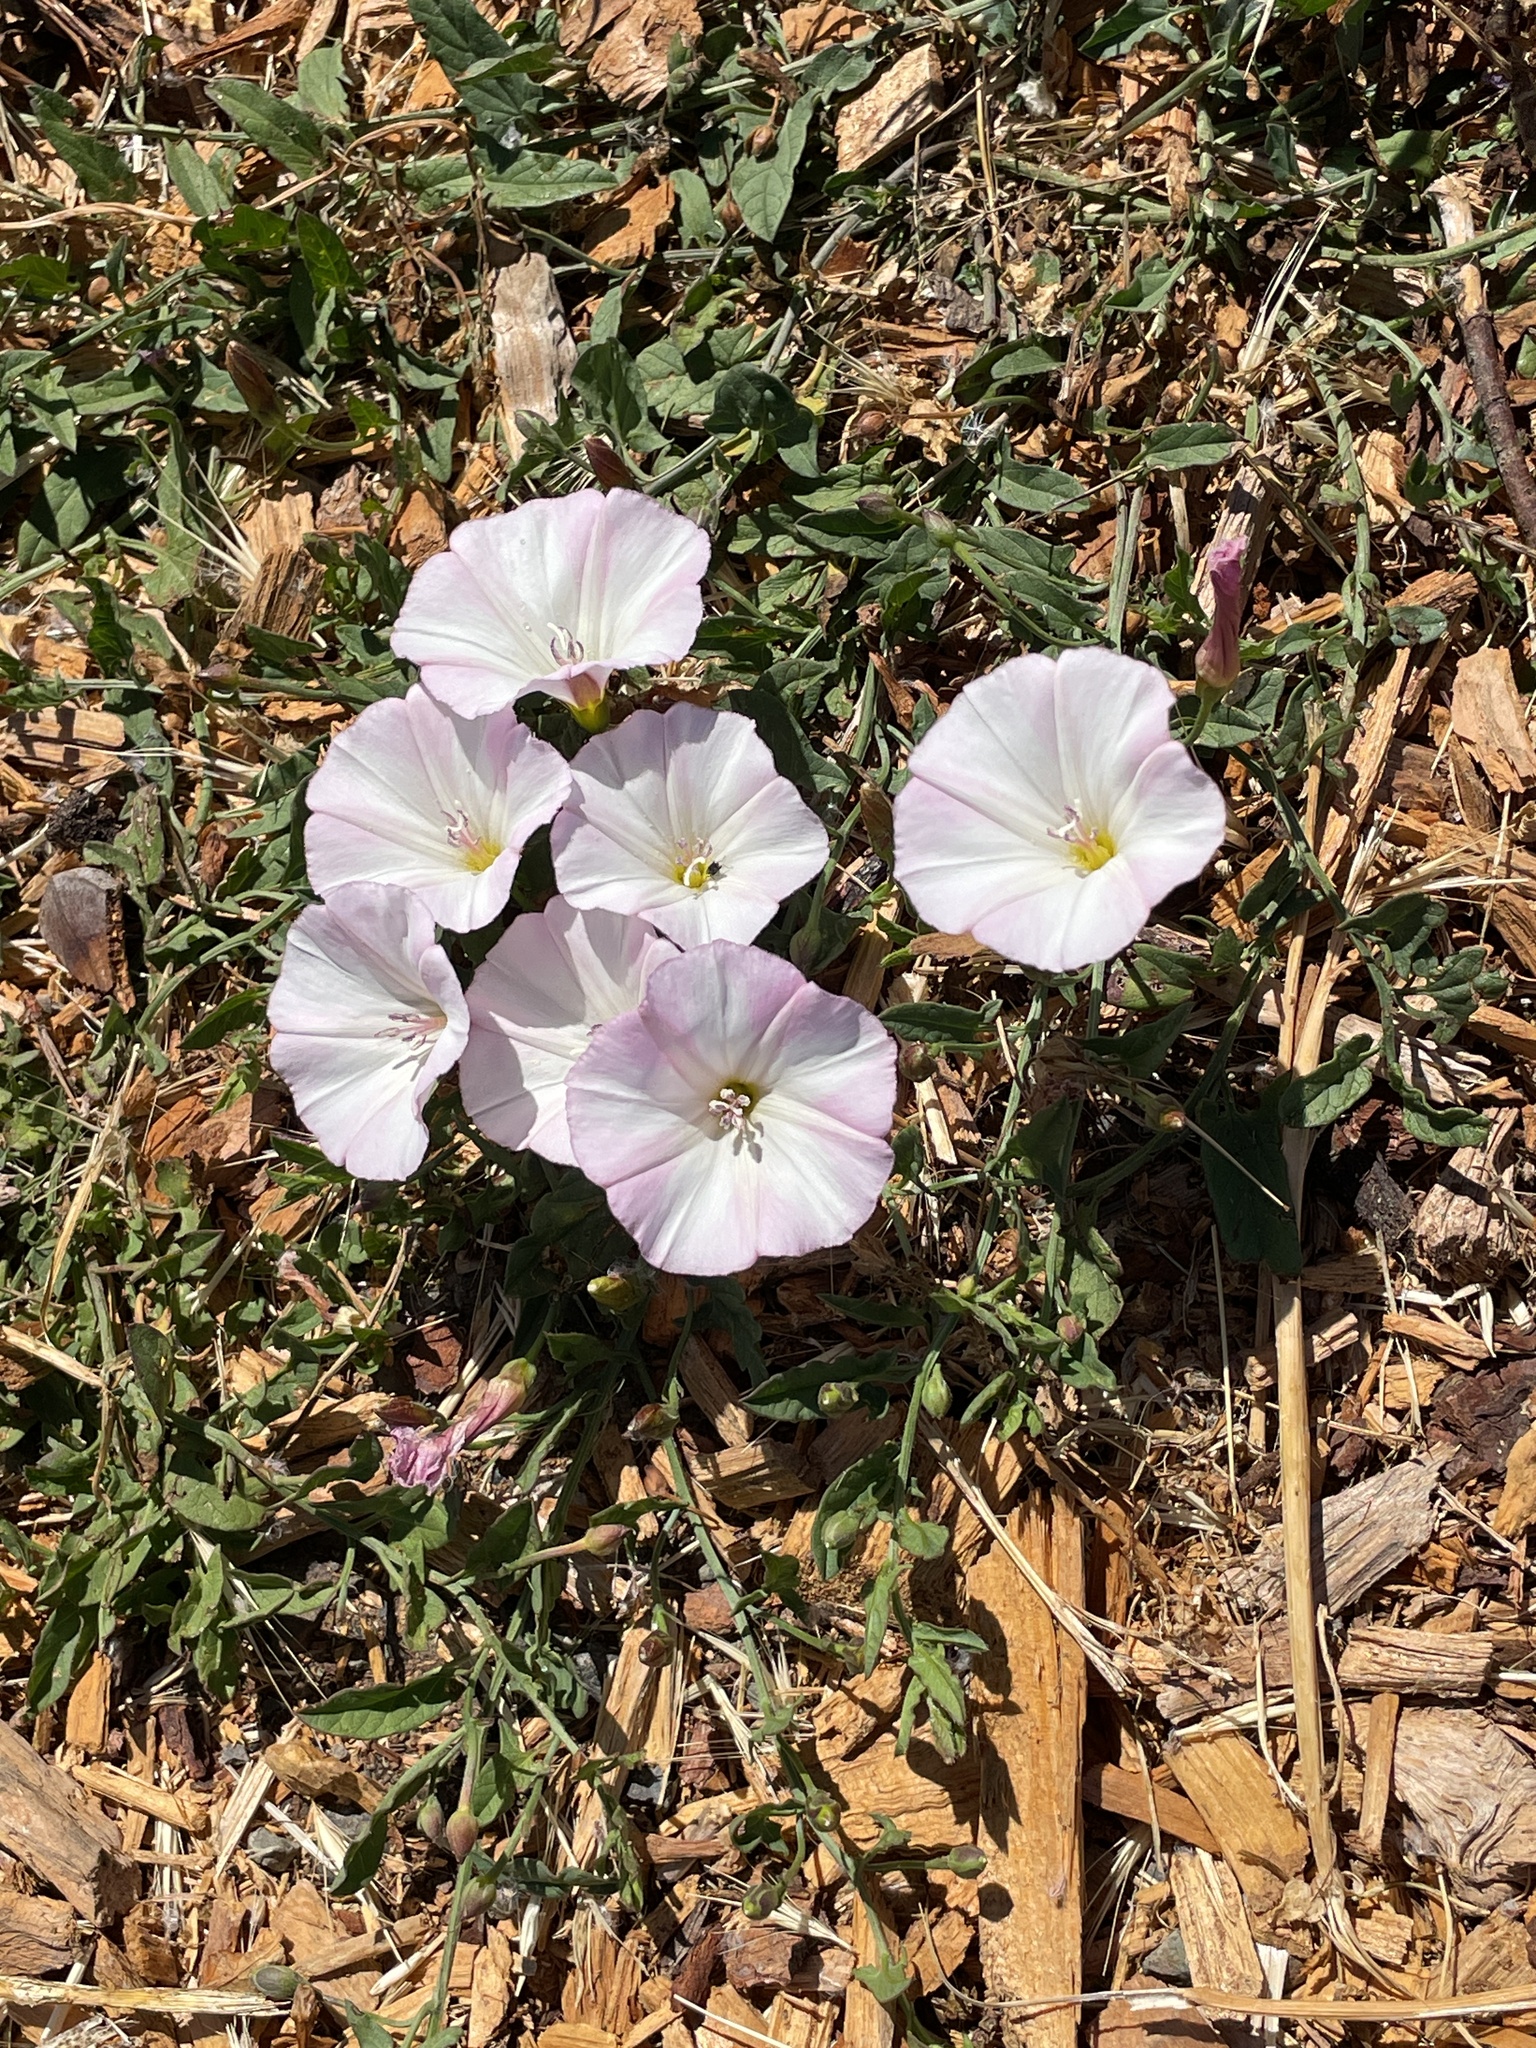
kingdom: Plantae
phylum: Tracheophyta
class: Magnoliopsida
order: Solanales
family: Convolvulaceae
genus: Convolvulus
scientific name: Convolvulus arvensis
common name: Field bindweed
